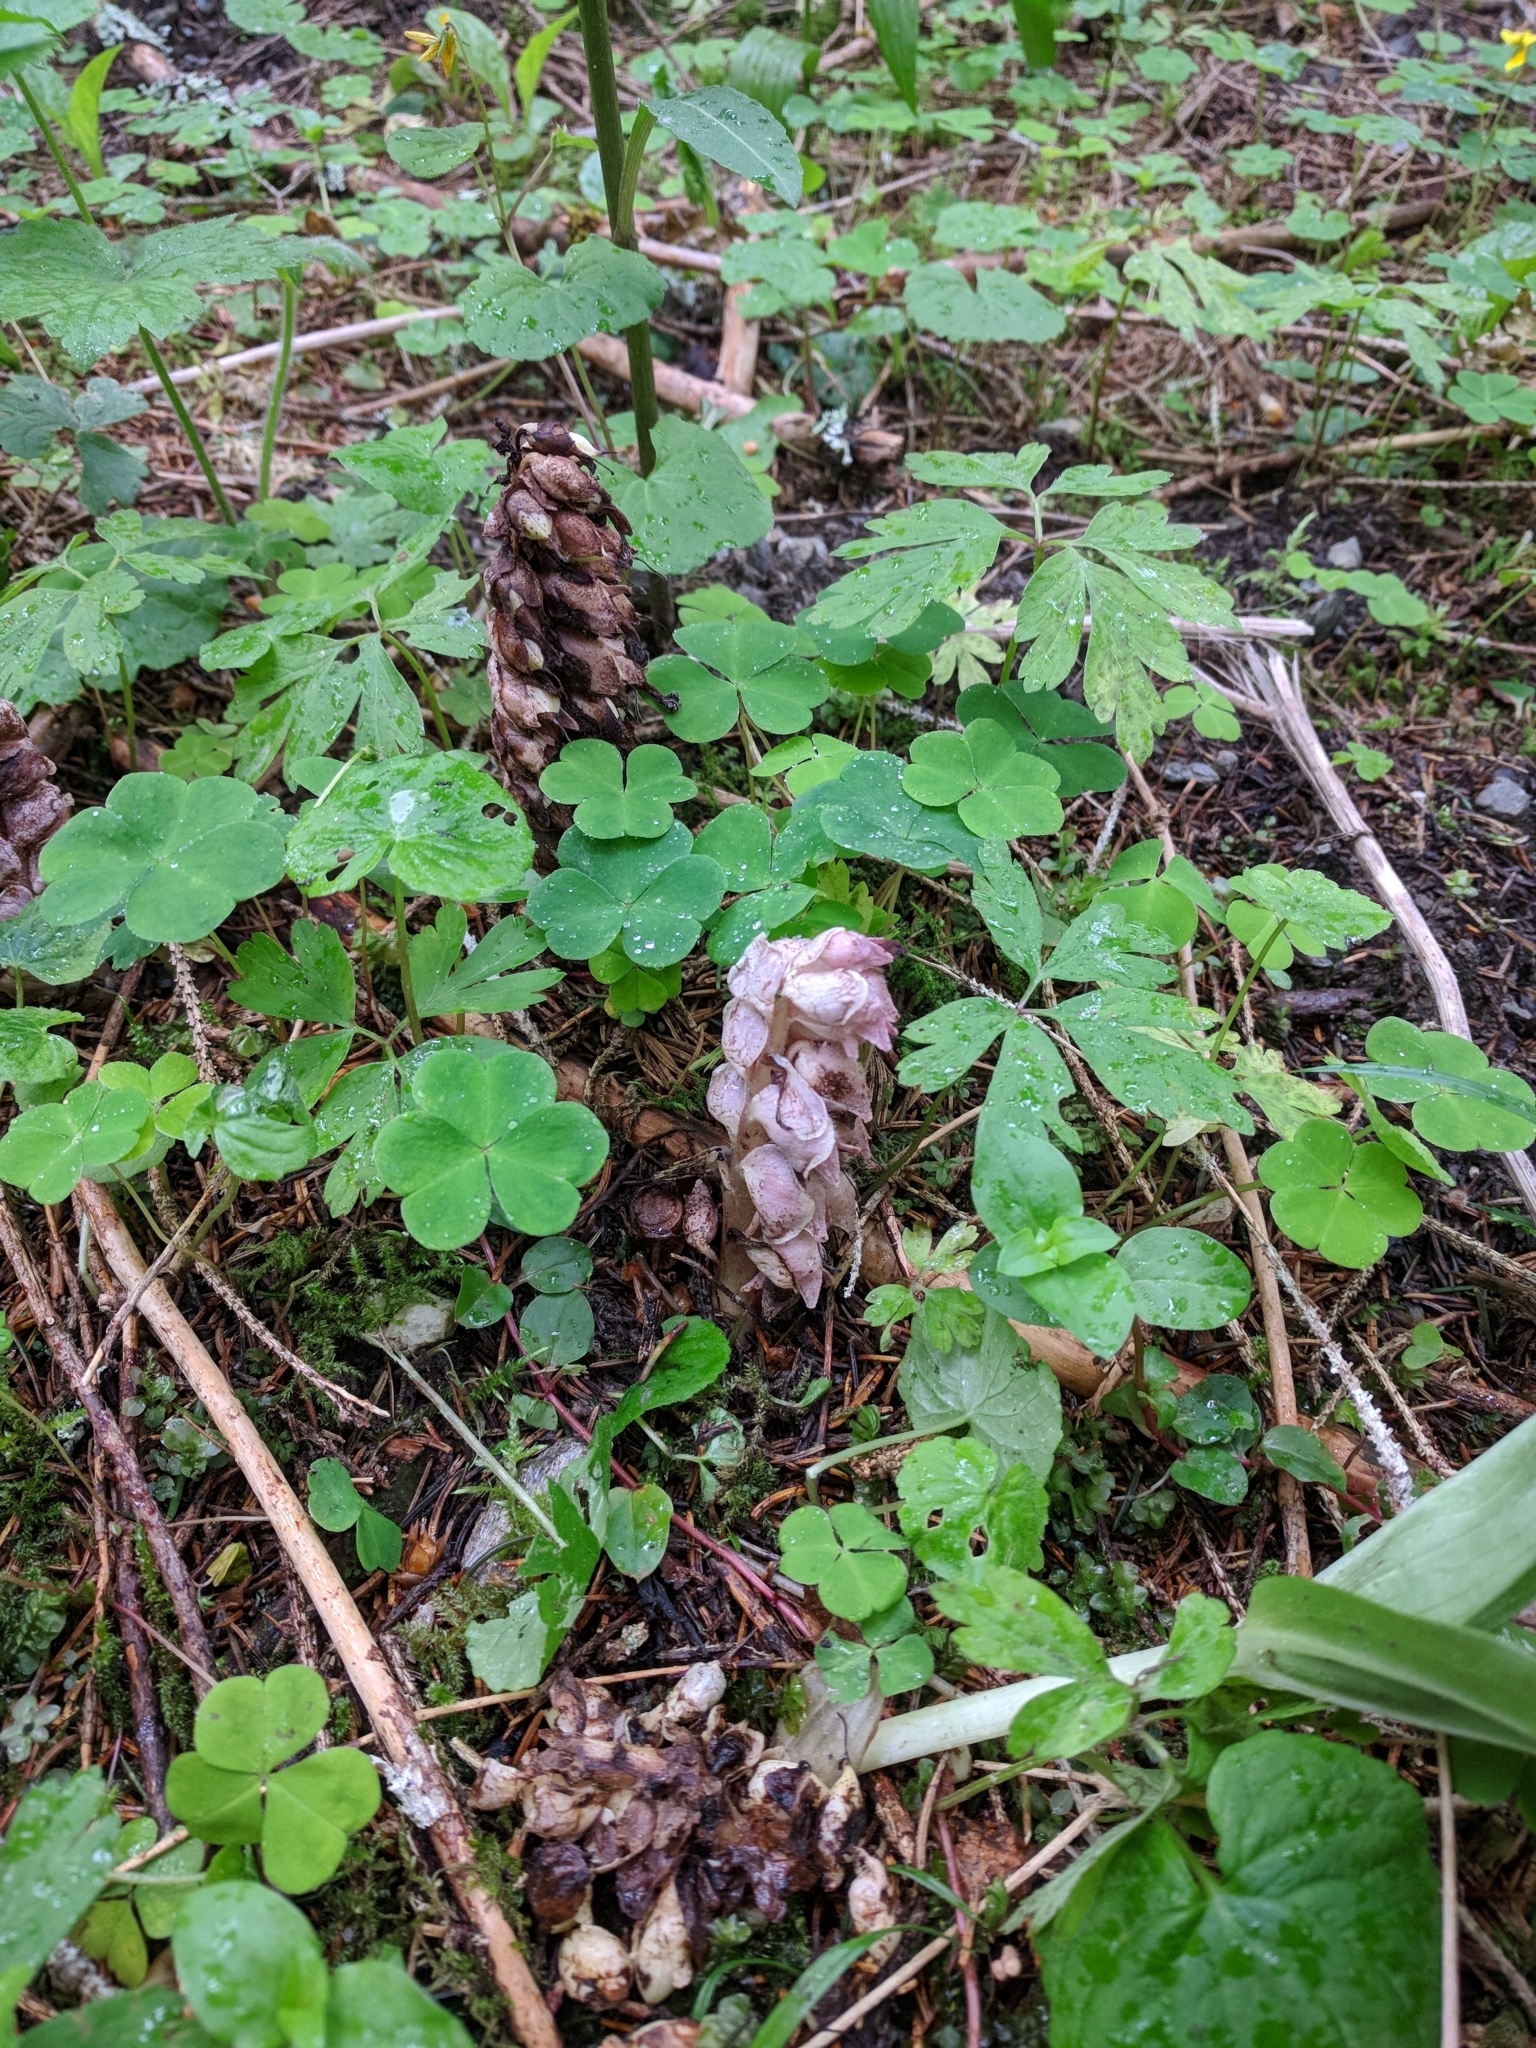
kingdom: Plantae
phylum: Tracheophyta
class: Magnoliopsida
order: Lamiales
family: Orobanchaceae
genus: Lathraea
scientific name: Lathraea squamaria
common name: Toothwort
